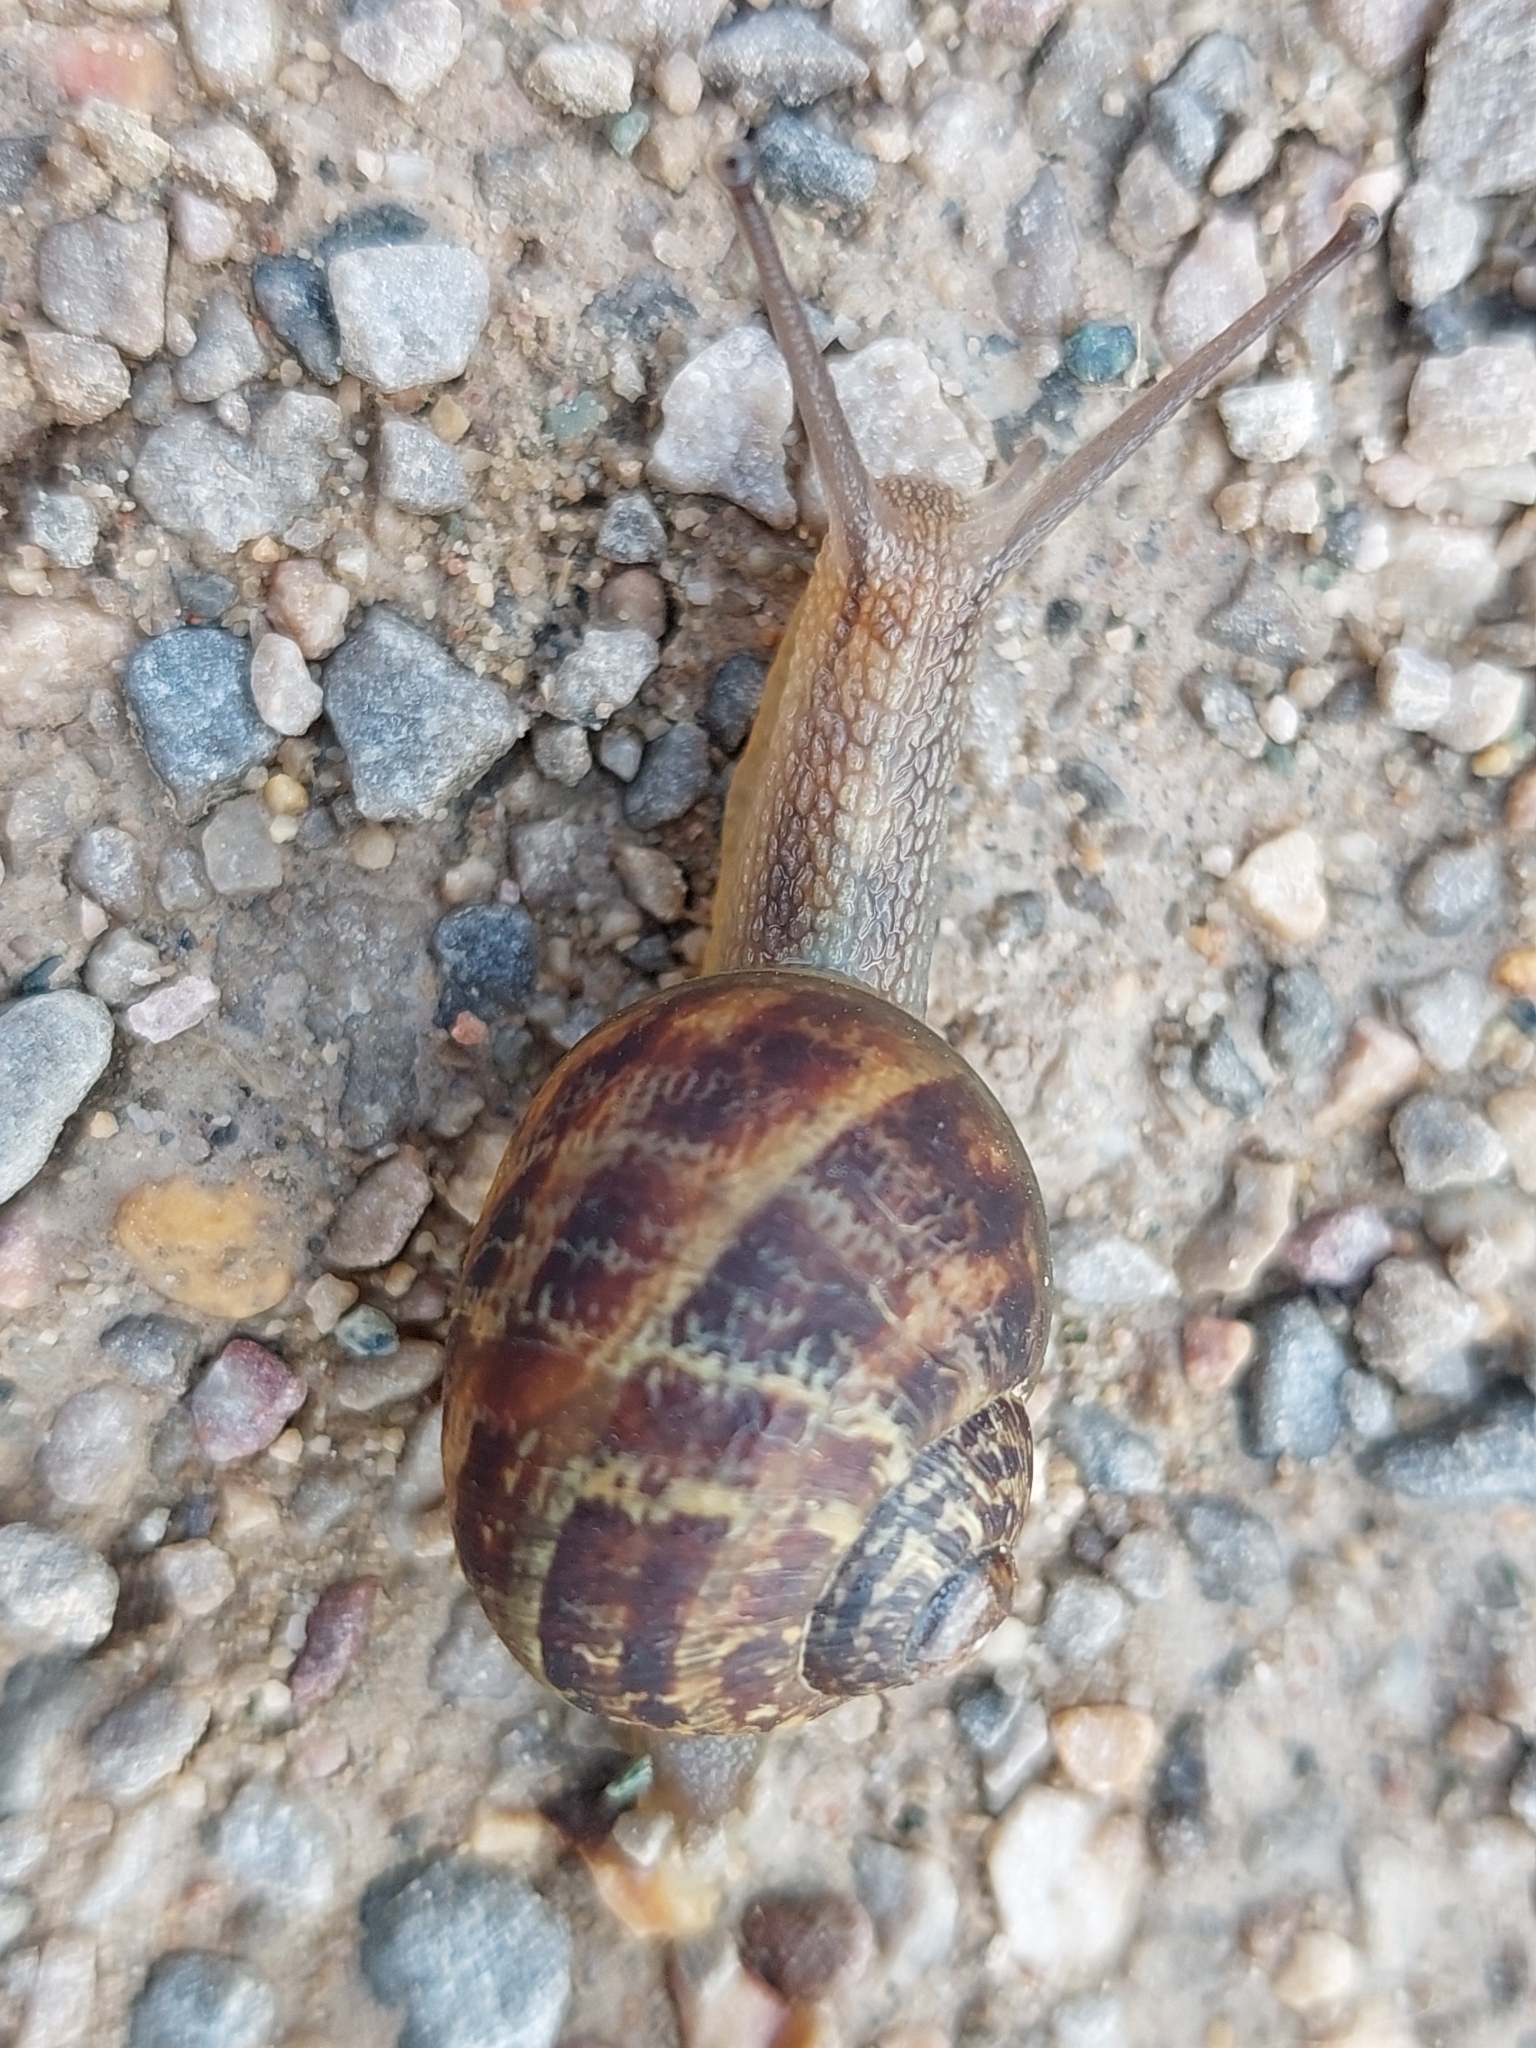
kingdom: Animalia
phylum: Mollusca
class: Gastropoda
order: Stylommatophora
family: Helicidae
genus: Cornu
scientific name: Cornu aspersum
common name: Brown garden snail
